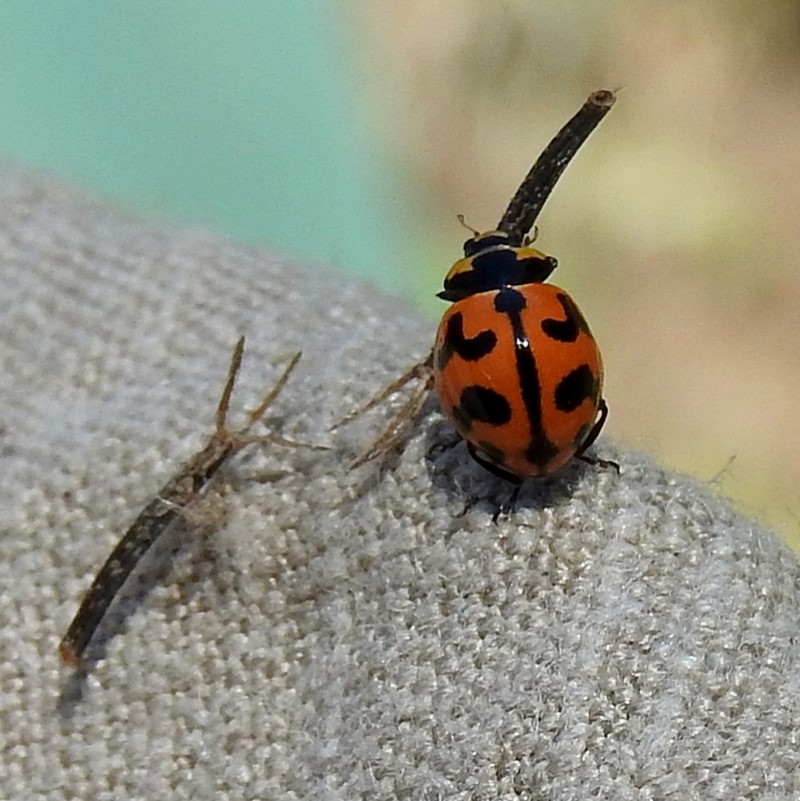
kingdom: Animalia
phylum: Arthropoda
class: Insecta
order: Coleoptera
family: Coccinellidae
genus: Coccinella
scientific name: Coccinella transversalis
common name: Transverse lady beetle
